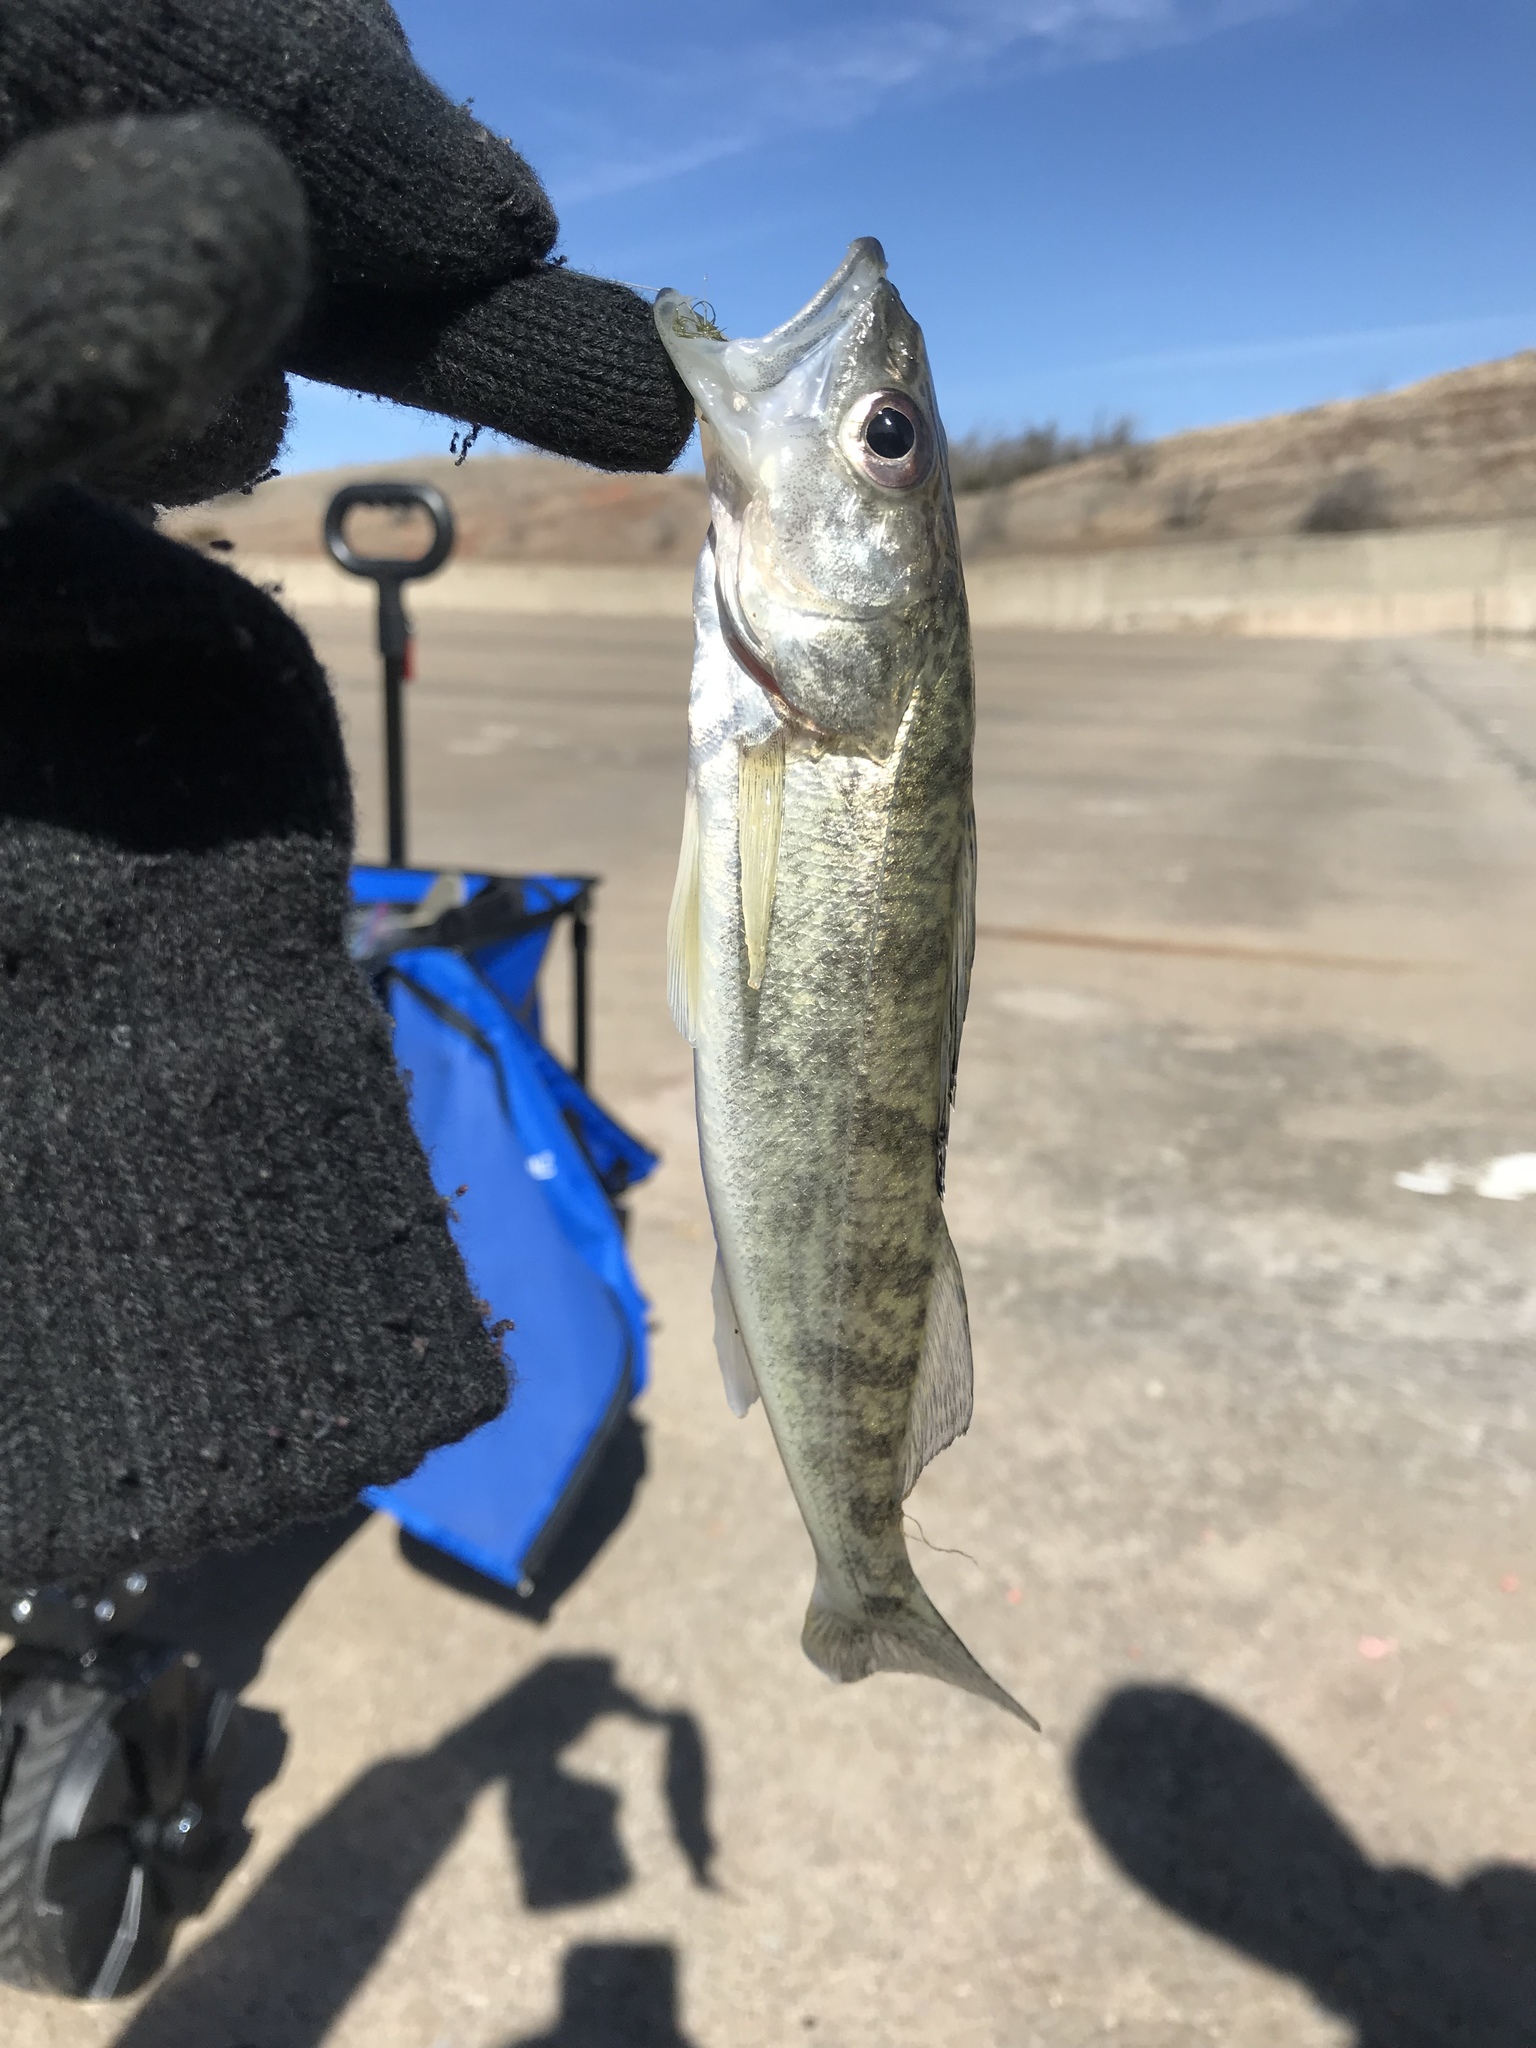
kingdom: Animalia
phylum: Chordata
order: Perciformes
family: Percidae
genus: Sander
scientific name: Sander vitreus
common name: Walleye
